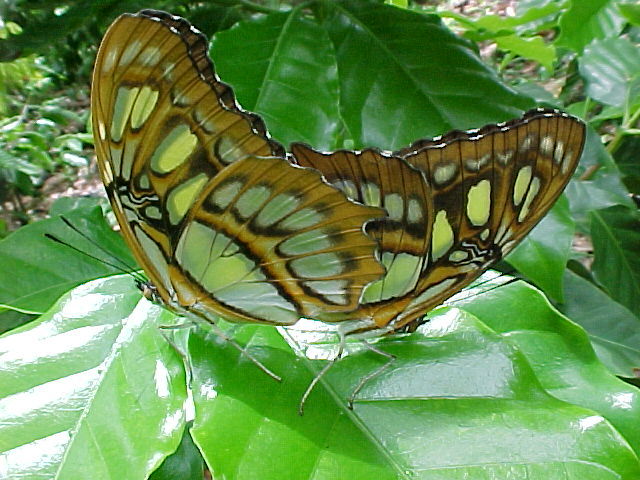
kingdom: Animalia
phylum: Arthropoda
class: Insecta
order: Lepidoptera
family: Nymphalidae
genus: Siproeta
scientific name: Siproeta stelenes
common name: Malachite
